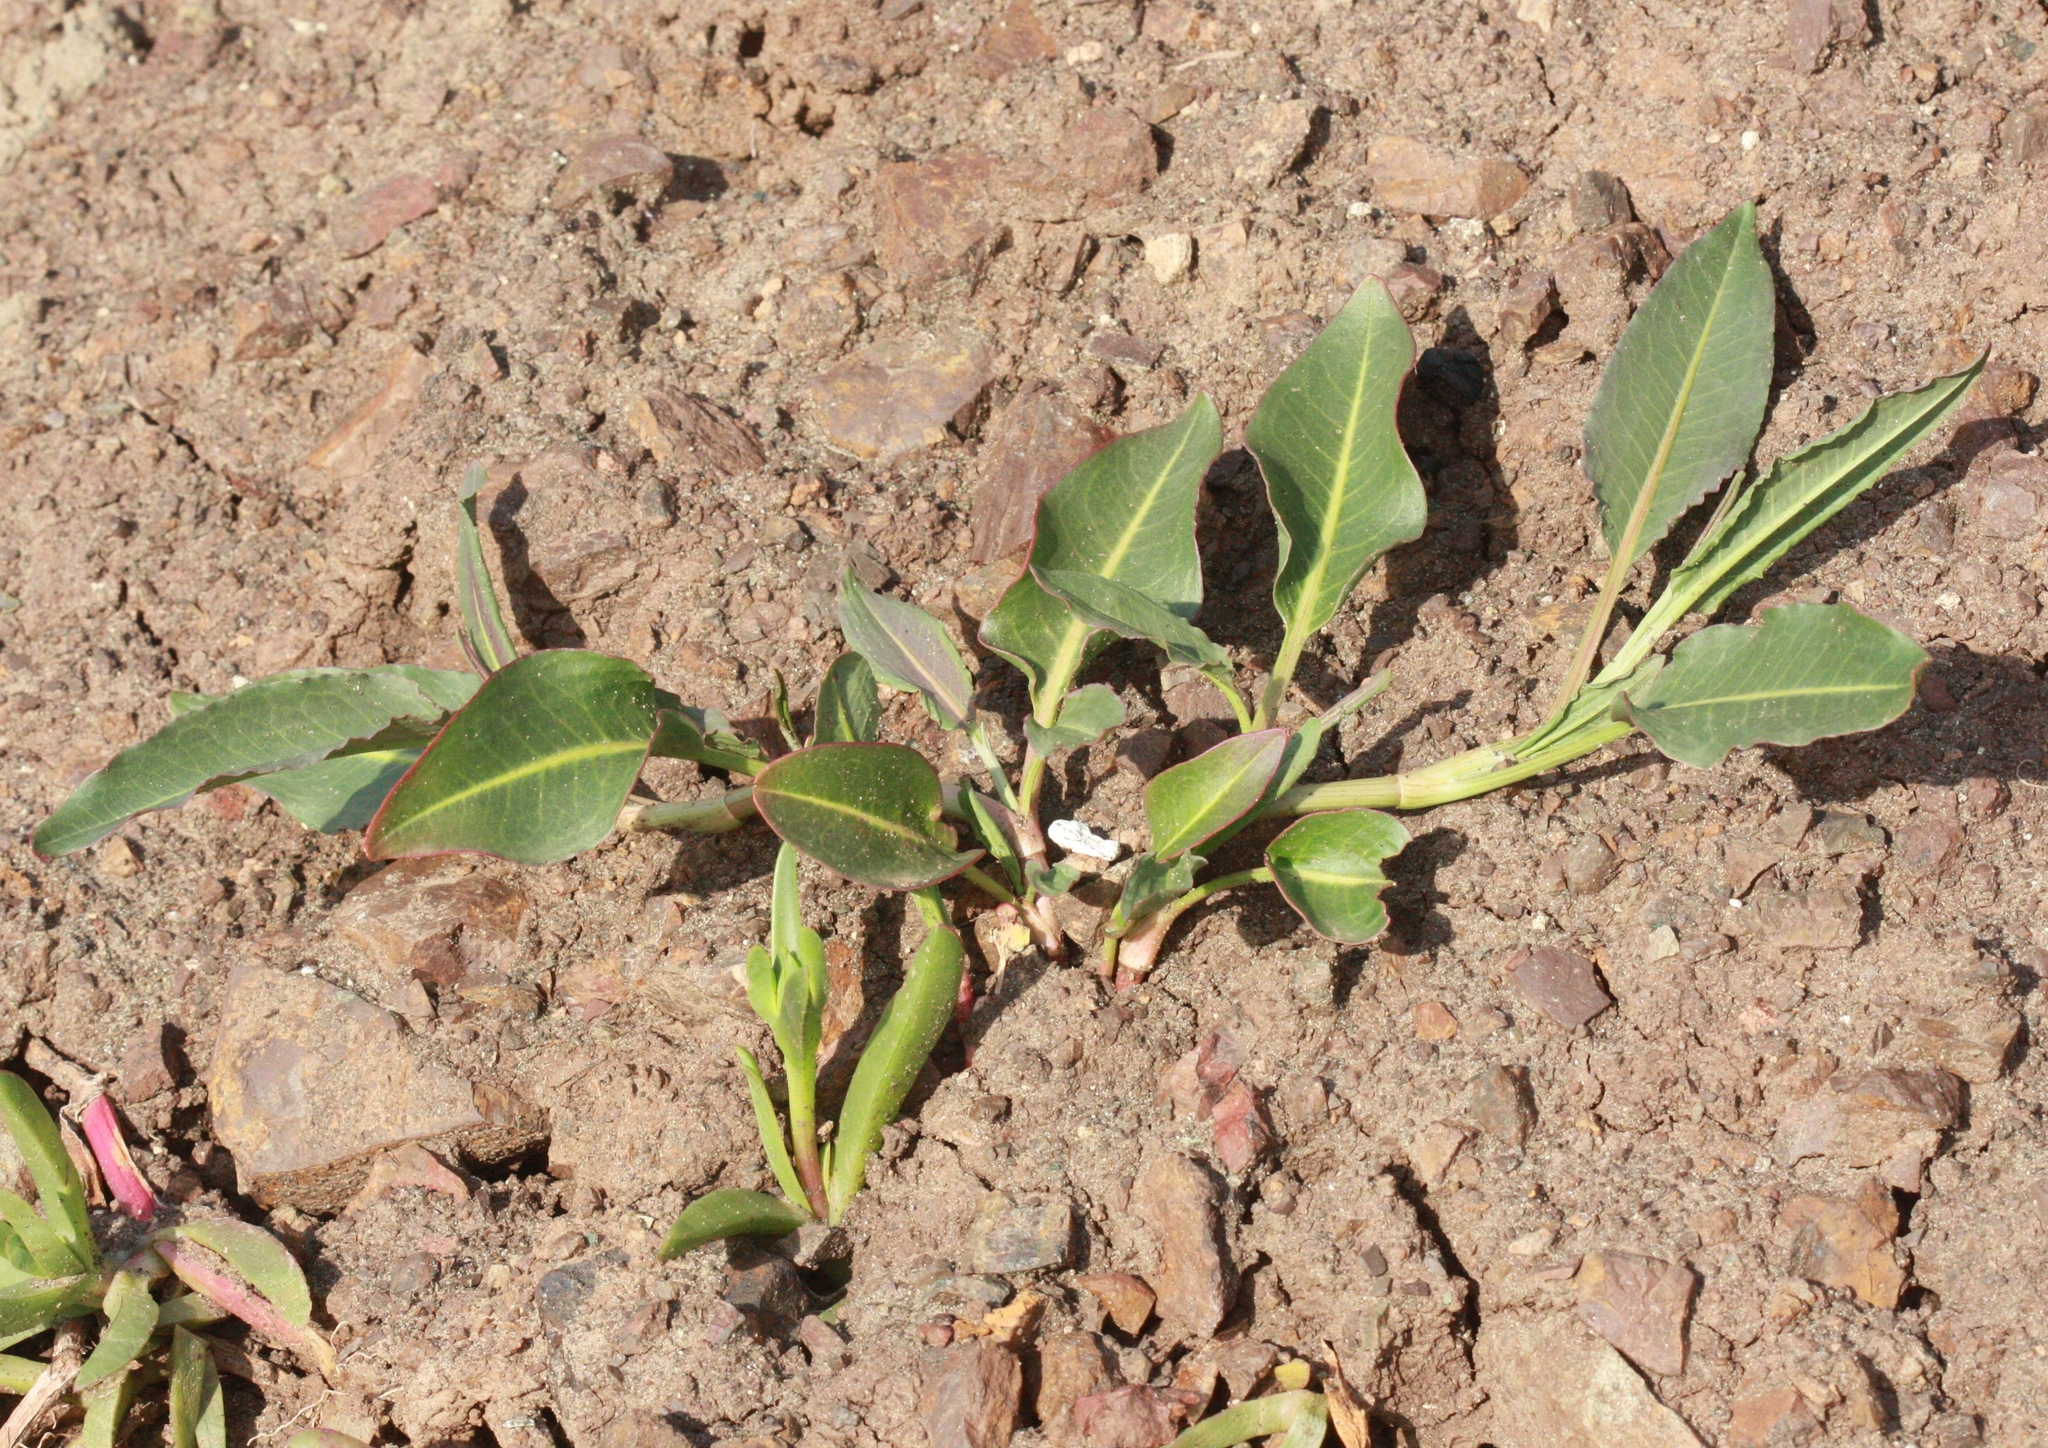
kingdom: Plantae
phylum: Tracheophyta
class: Magnoliopsida
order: Caryophyllales
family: Polygonaceae
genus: Rumex
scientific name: Rumex crassus
